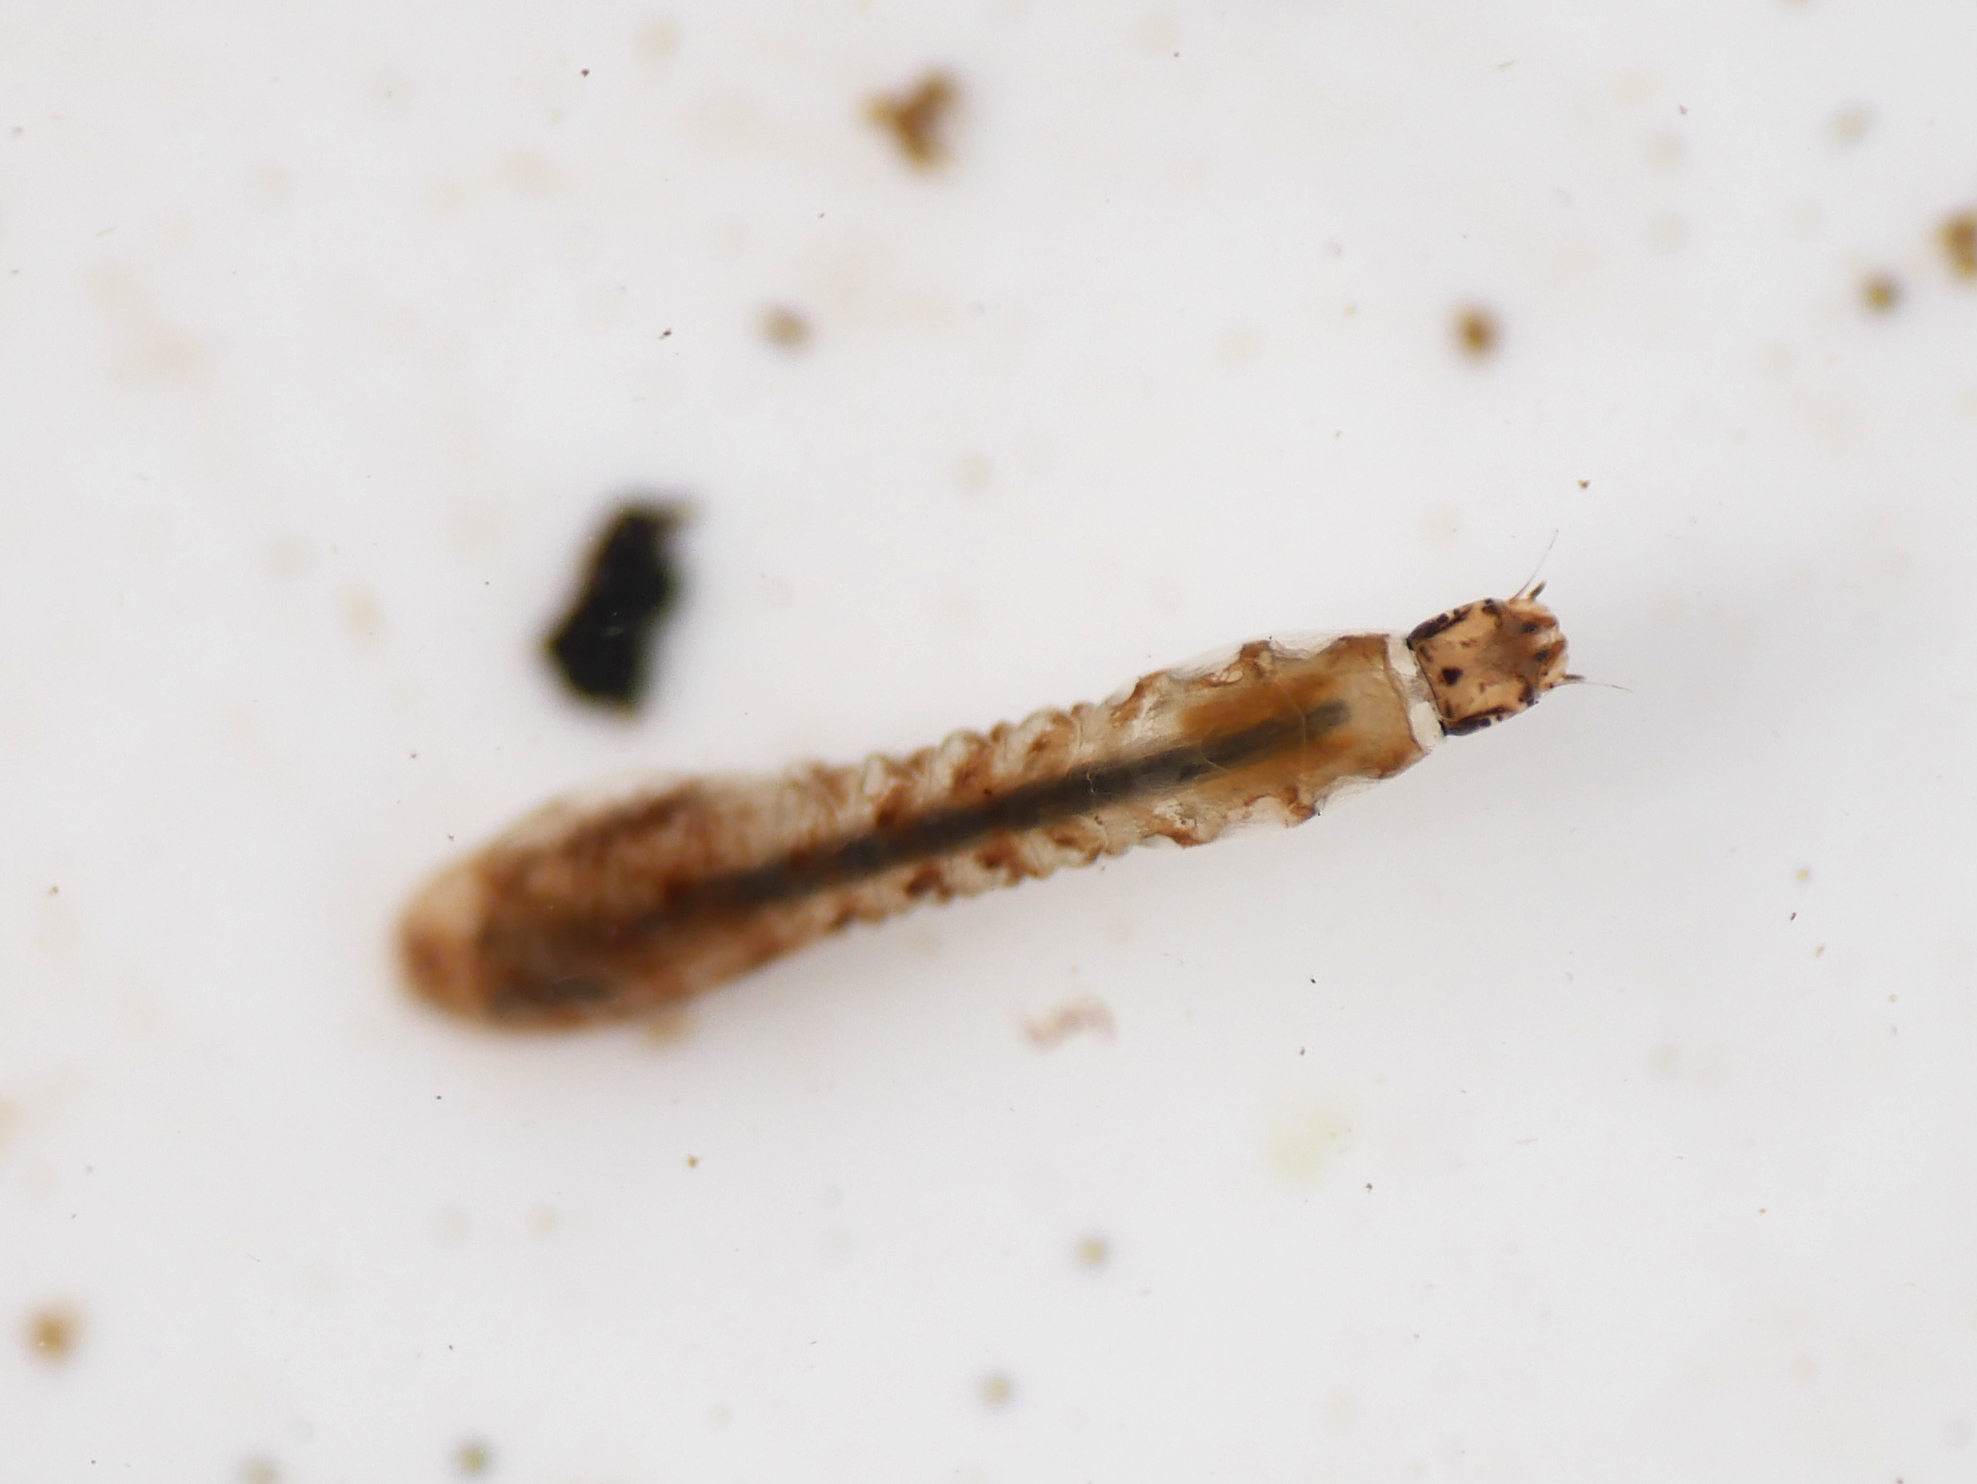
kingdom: Animalia
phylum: Arthropoda
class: Insecta
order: Diptera
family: Simuliidae
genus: Simulium
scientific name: Simulium costatum
